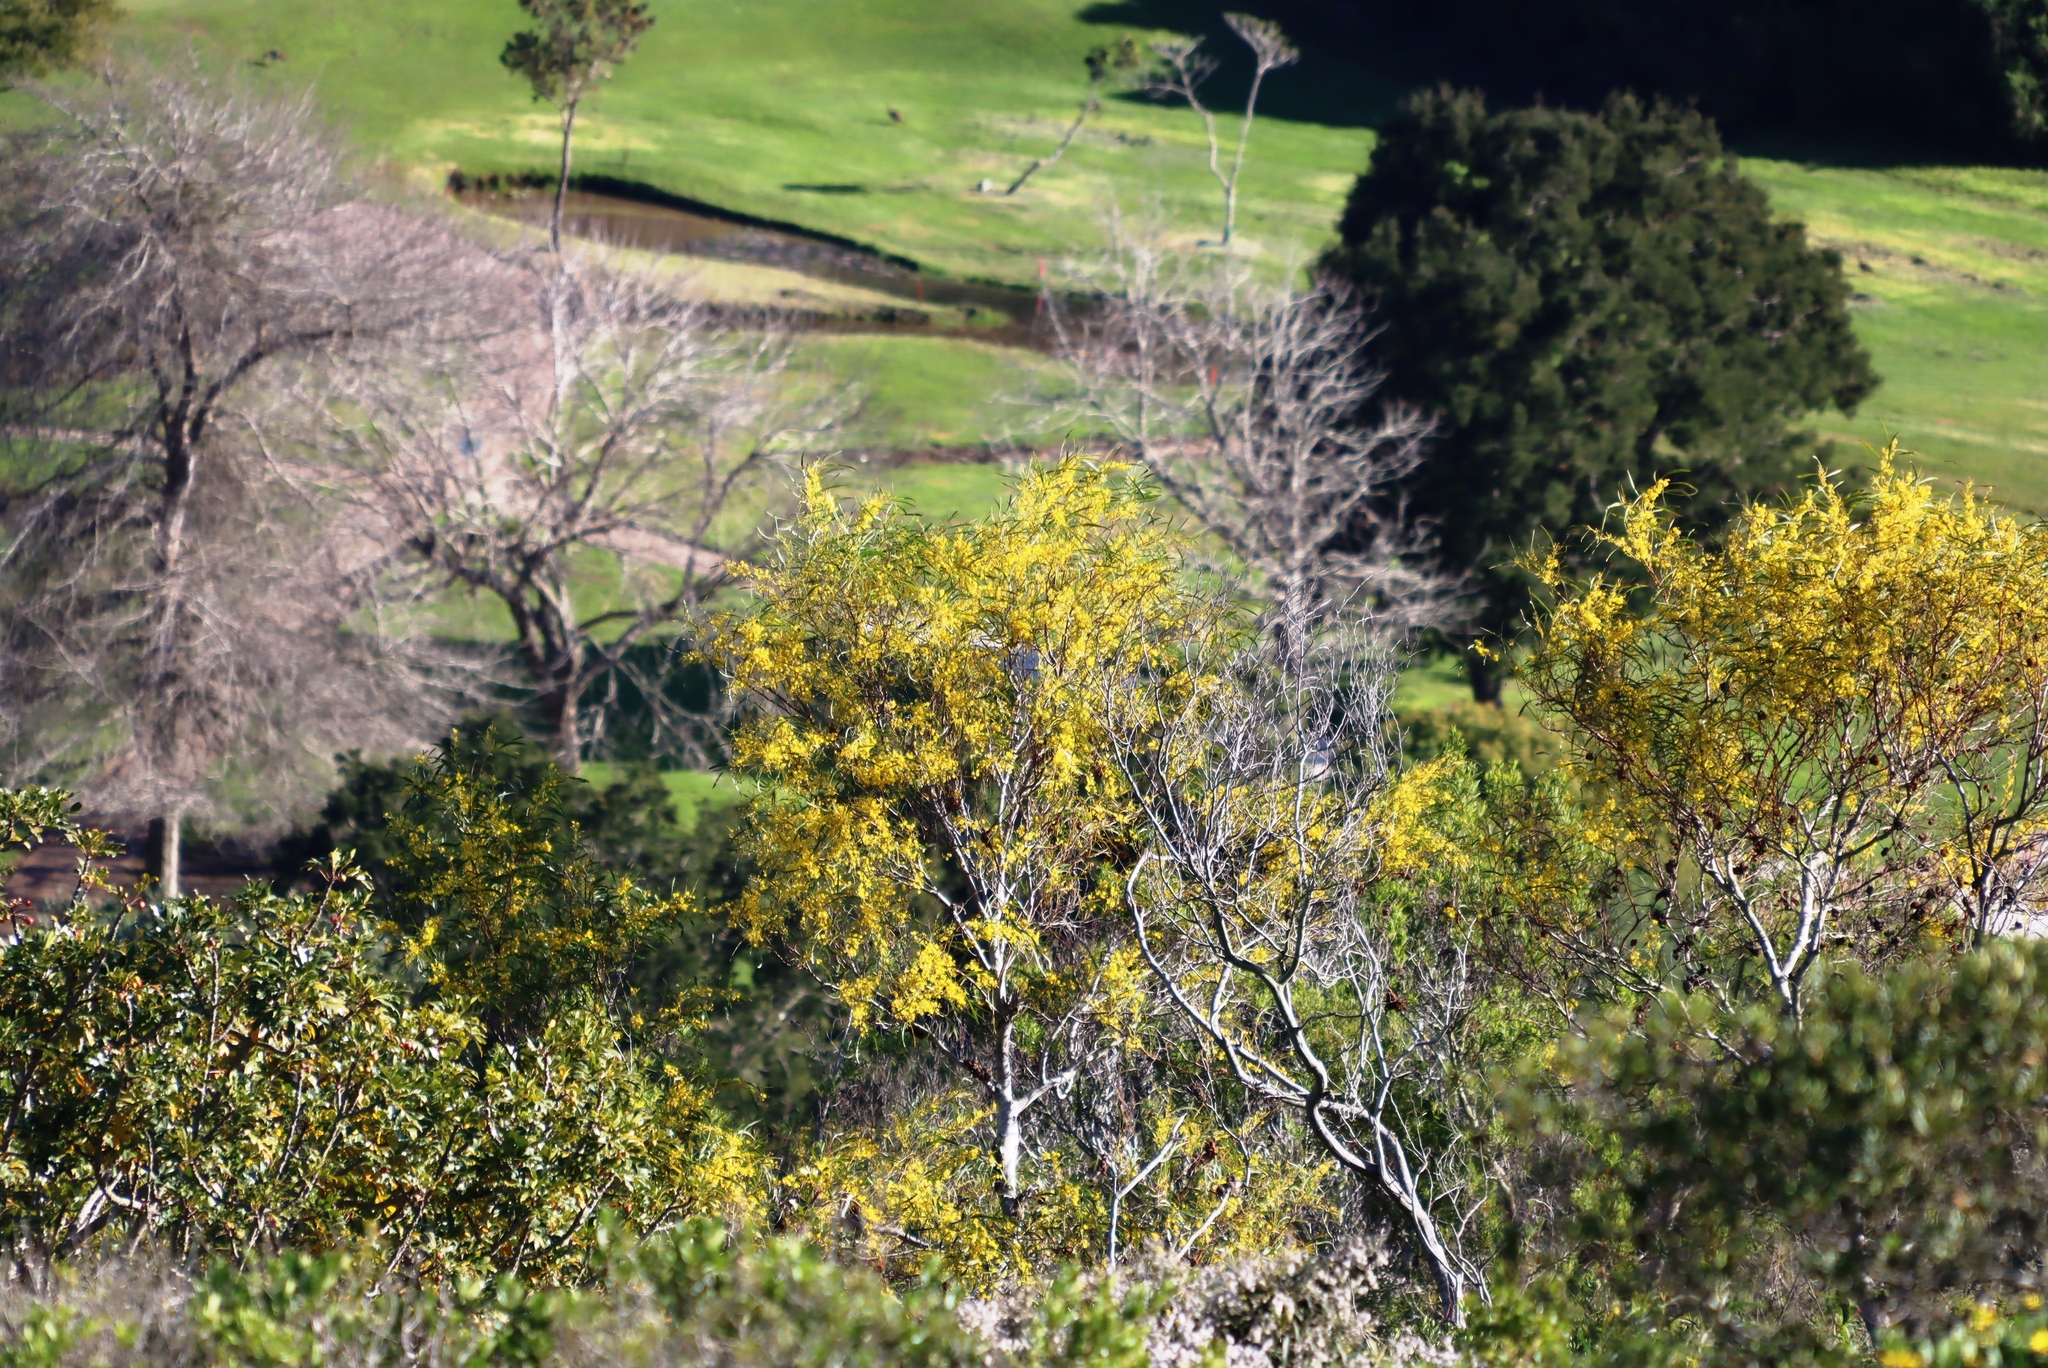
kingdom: Plantae
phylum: Tracheophyta
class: Magnoliopsida
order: Fabales
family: Fabaceae
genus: Acacia
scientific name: Acacia saligna
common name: Orange wattle
